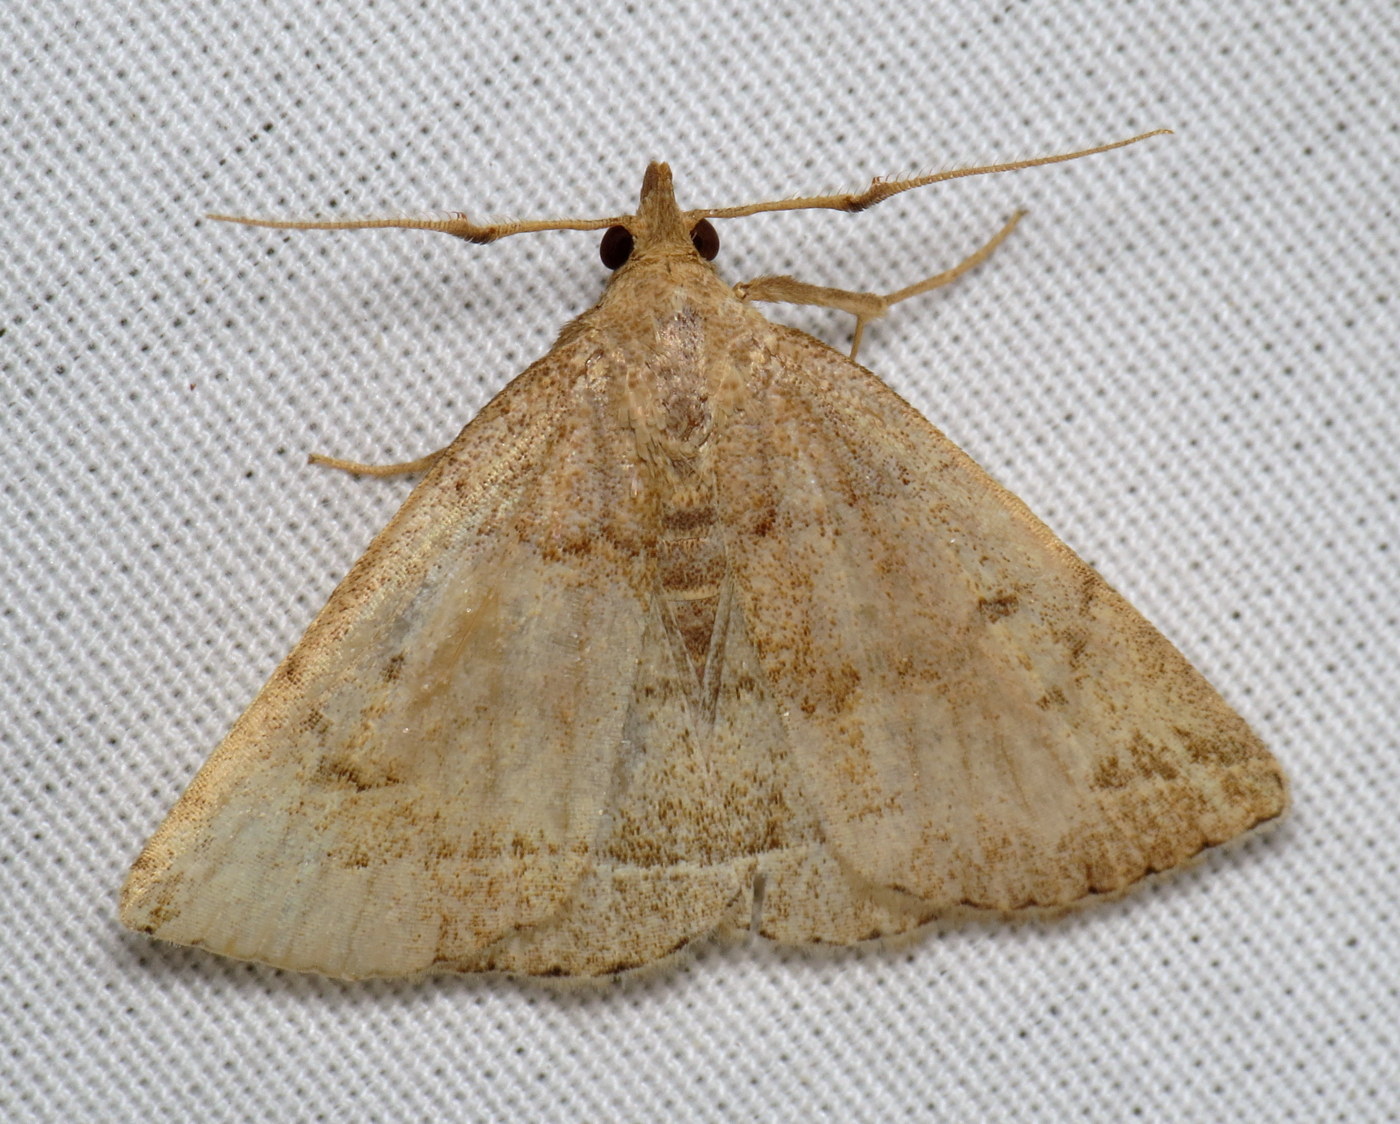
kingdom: Animalia
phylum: Arthropoda
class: Insecta
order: Lepidoptera
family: Erebidae
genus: Zanclognatha
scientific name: Zanclognatha jacchusalis
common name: Yellowish zanclognatha
